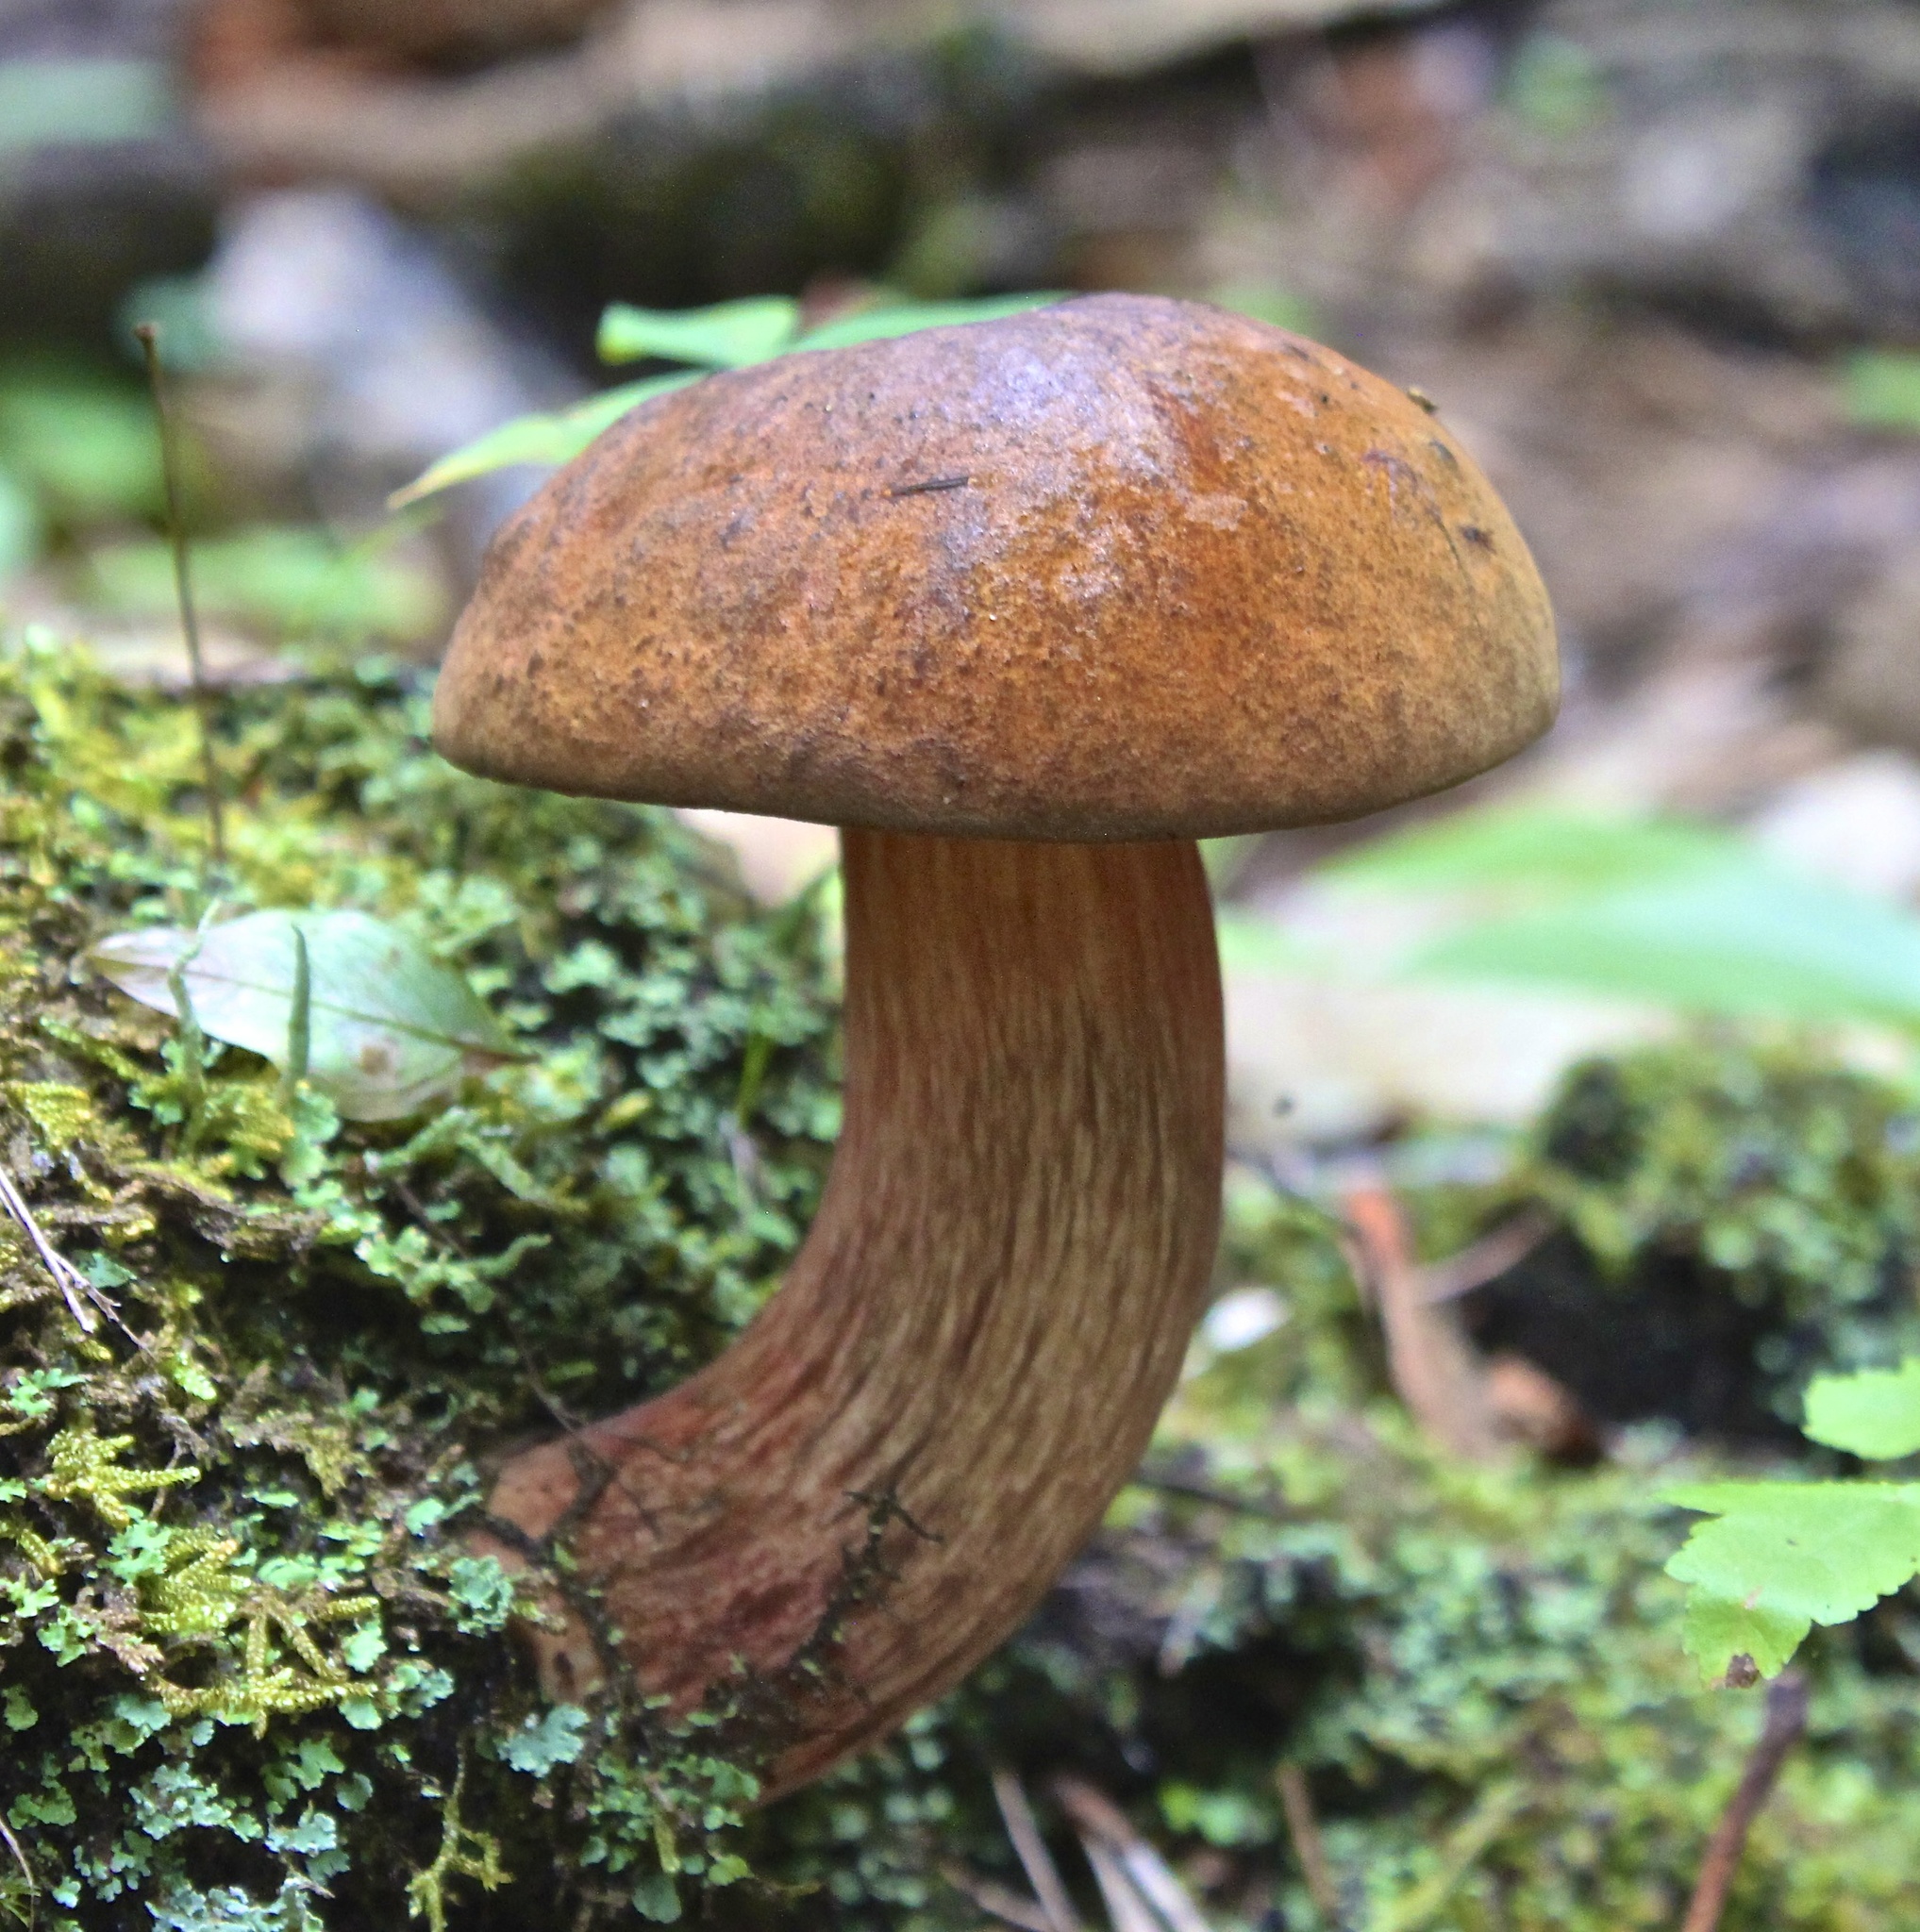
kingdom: Fungi
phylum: Basidiomycota
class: Agaricomycetes
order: Boletales
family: Boletaceae
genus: Boletus
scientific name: Boletus subvelutipes
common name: Red-mouth bolete
